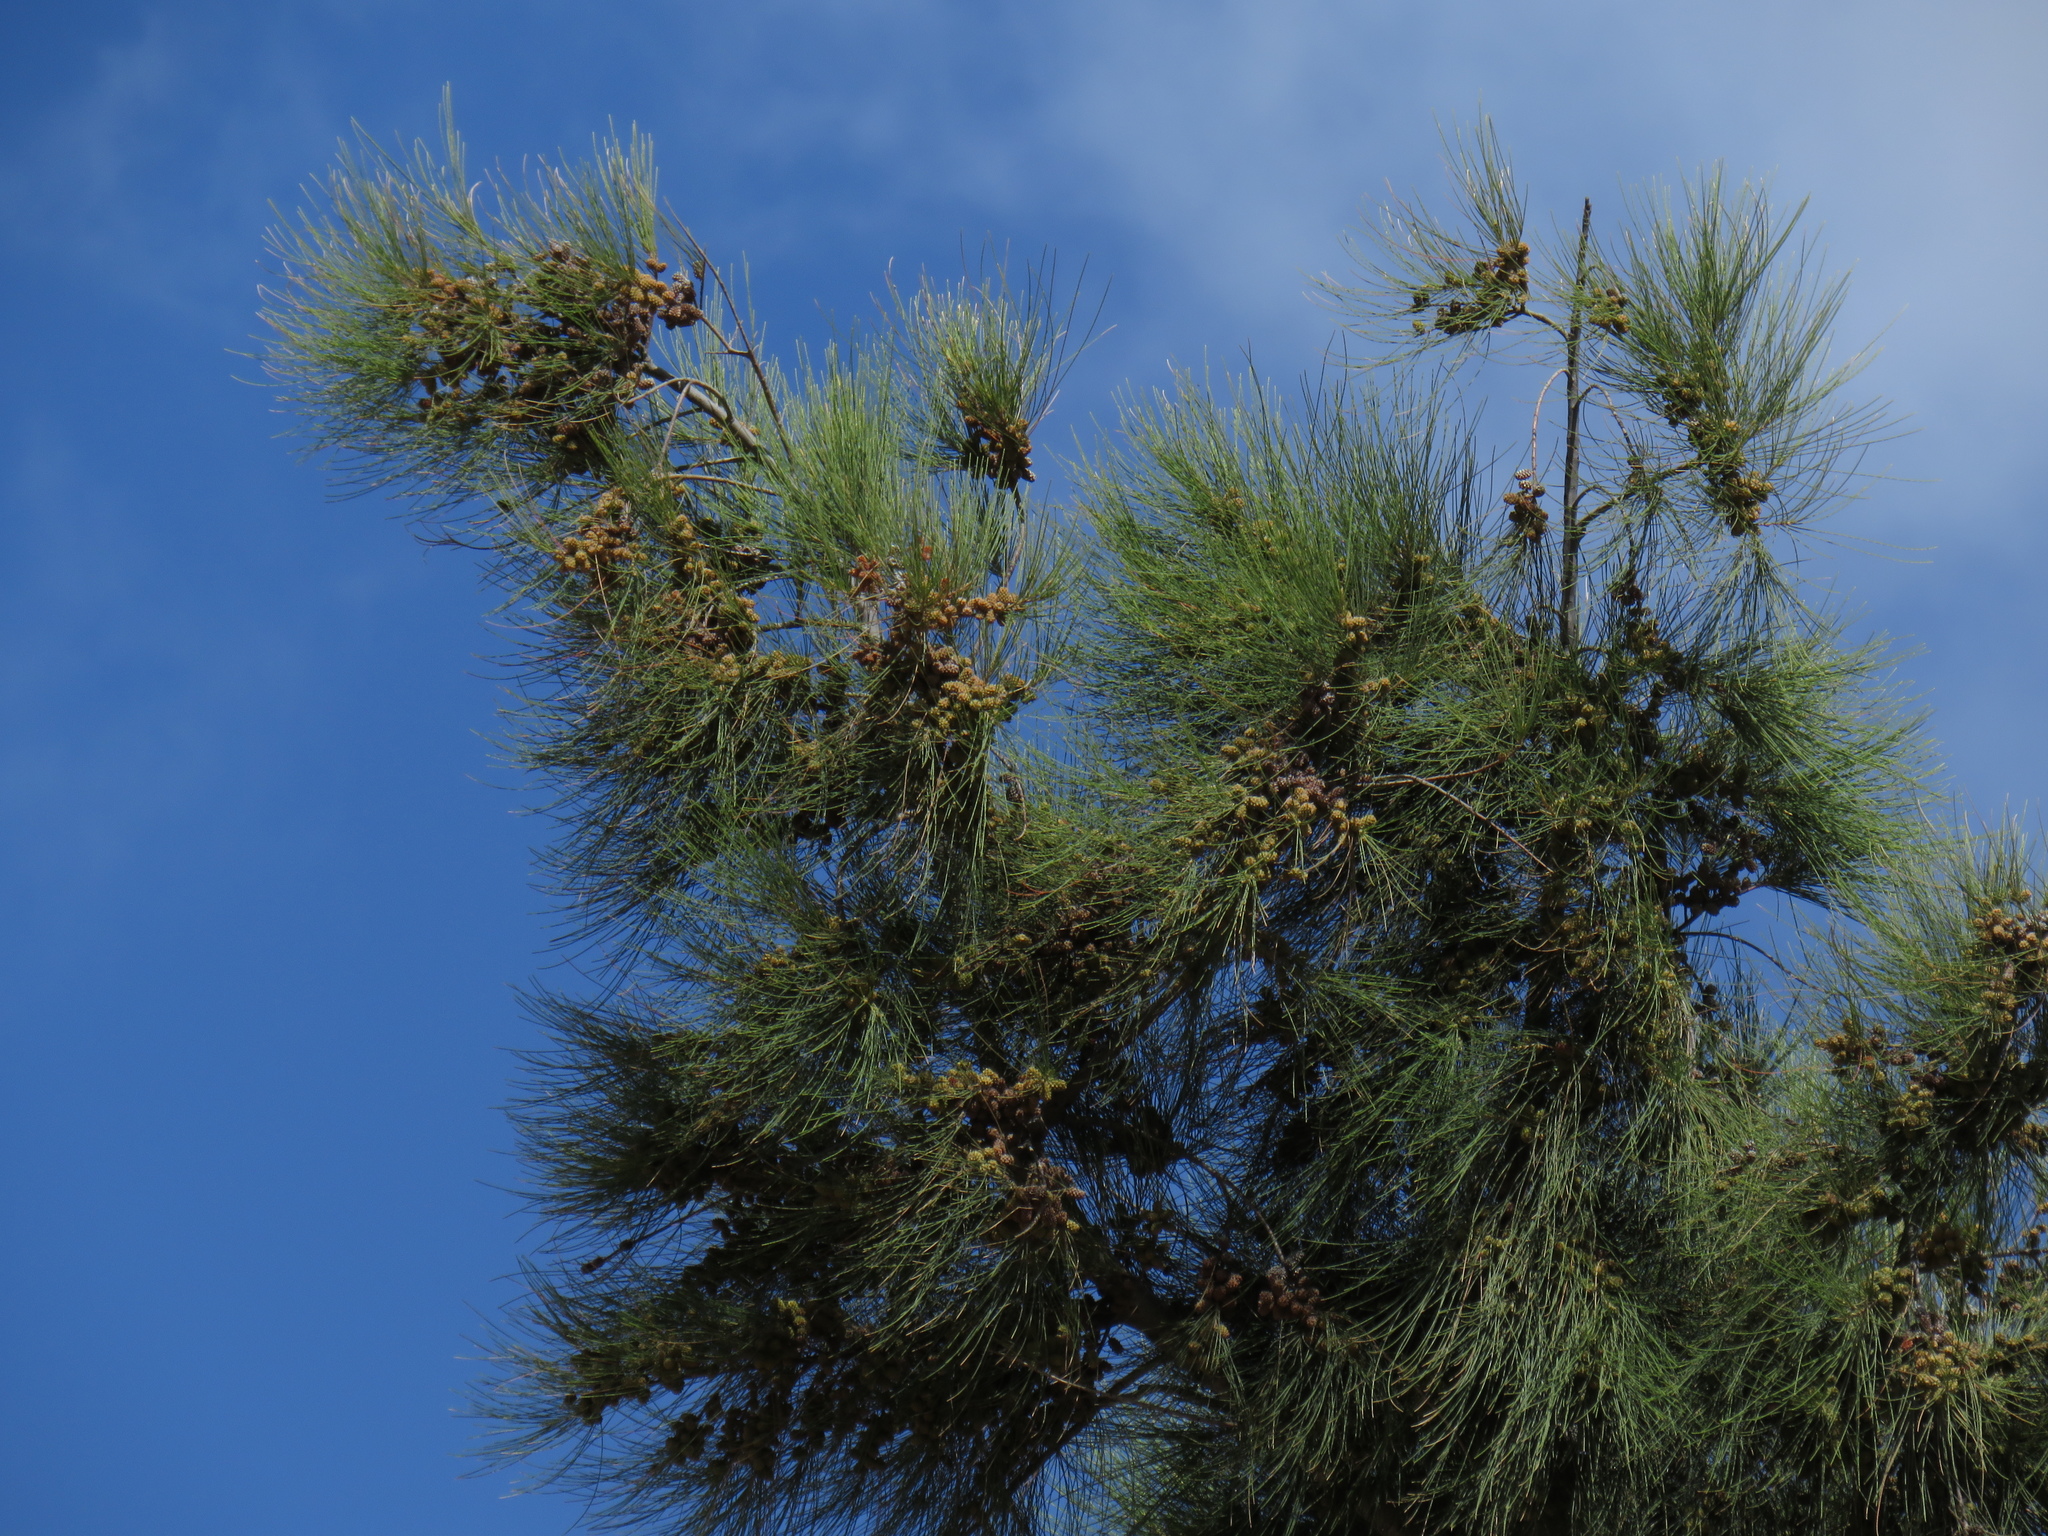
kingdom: Plantae
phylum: Tracheophyta
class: Magnoliopsida
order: Fagales
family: Casuarinaceae
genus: Casuarina
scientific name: Casuarina cunninghamiana
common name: River sheoak
